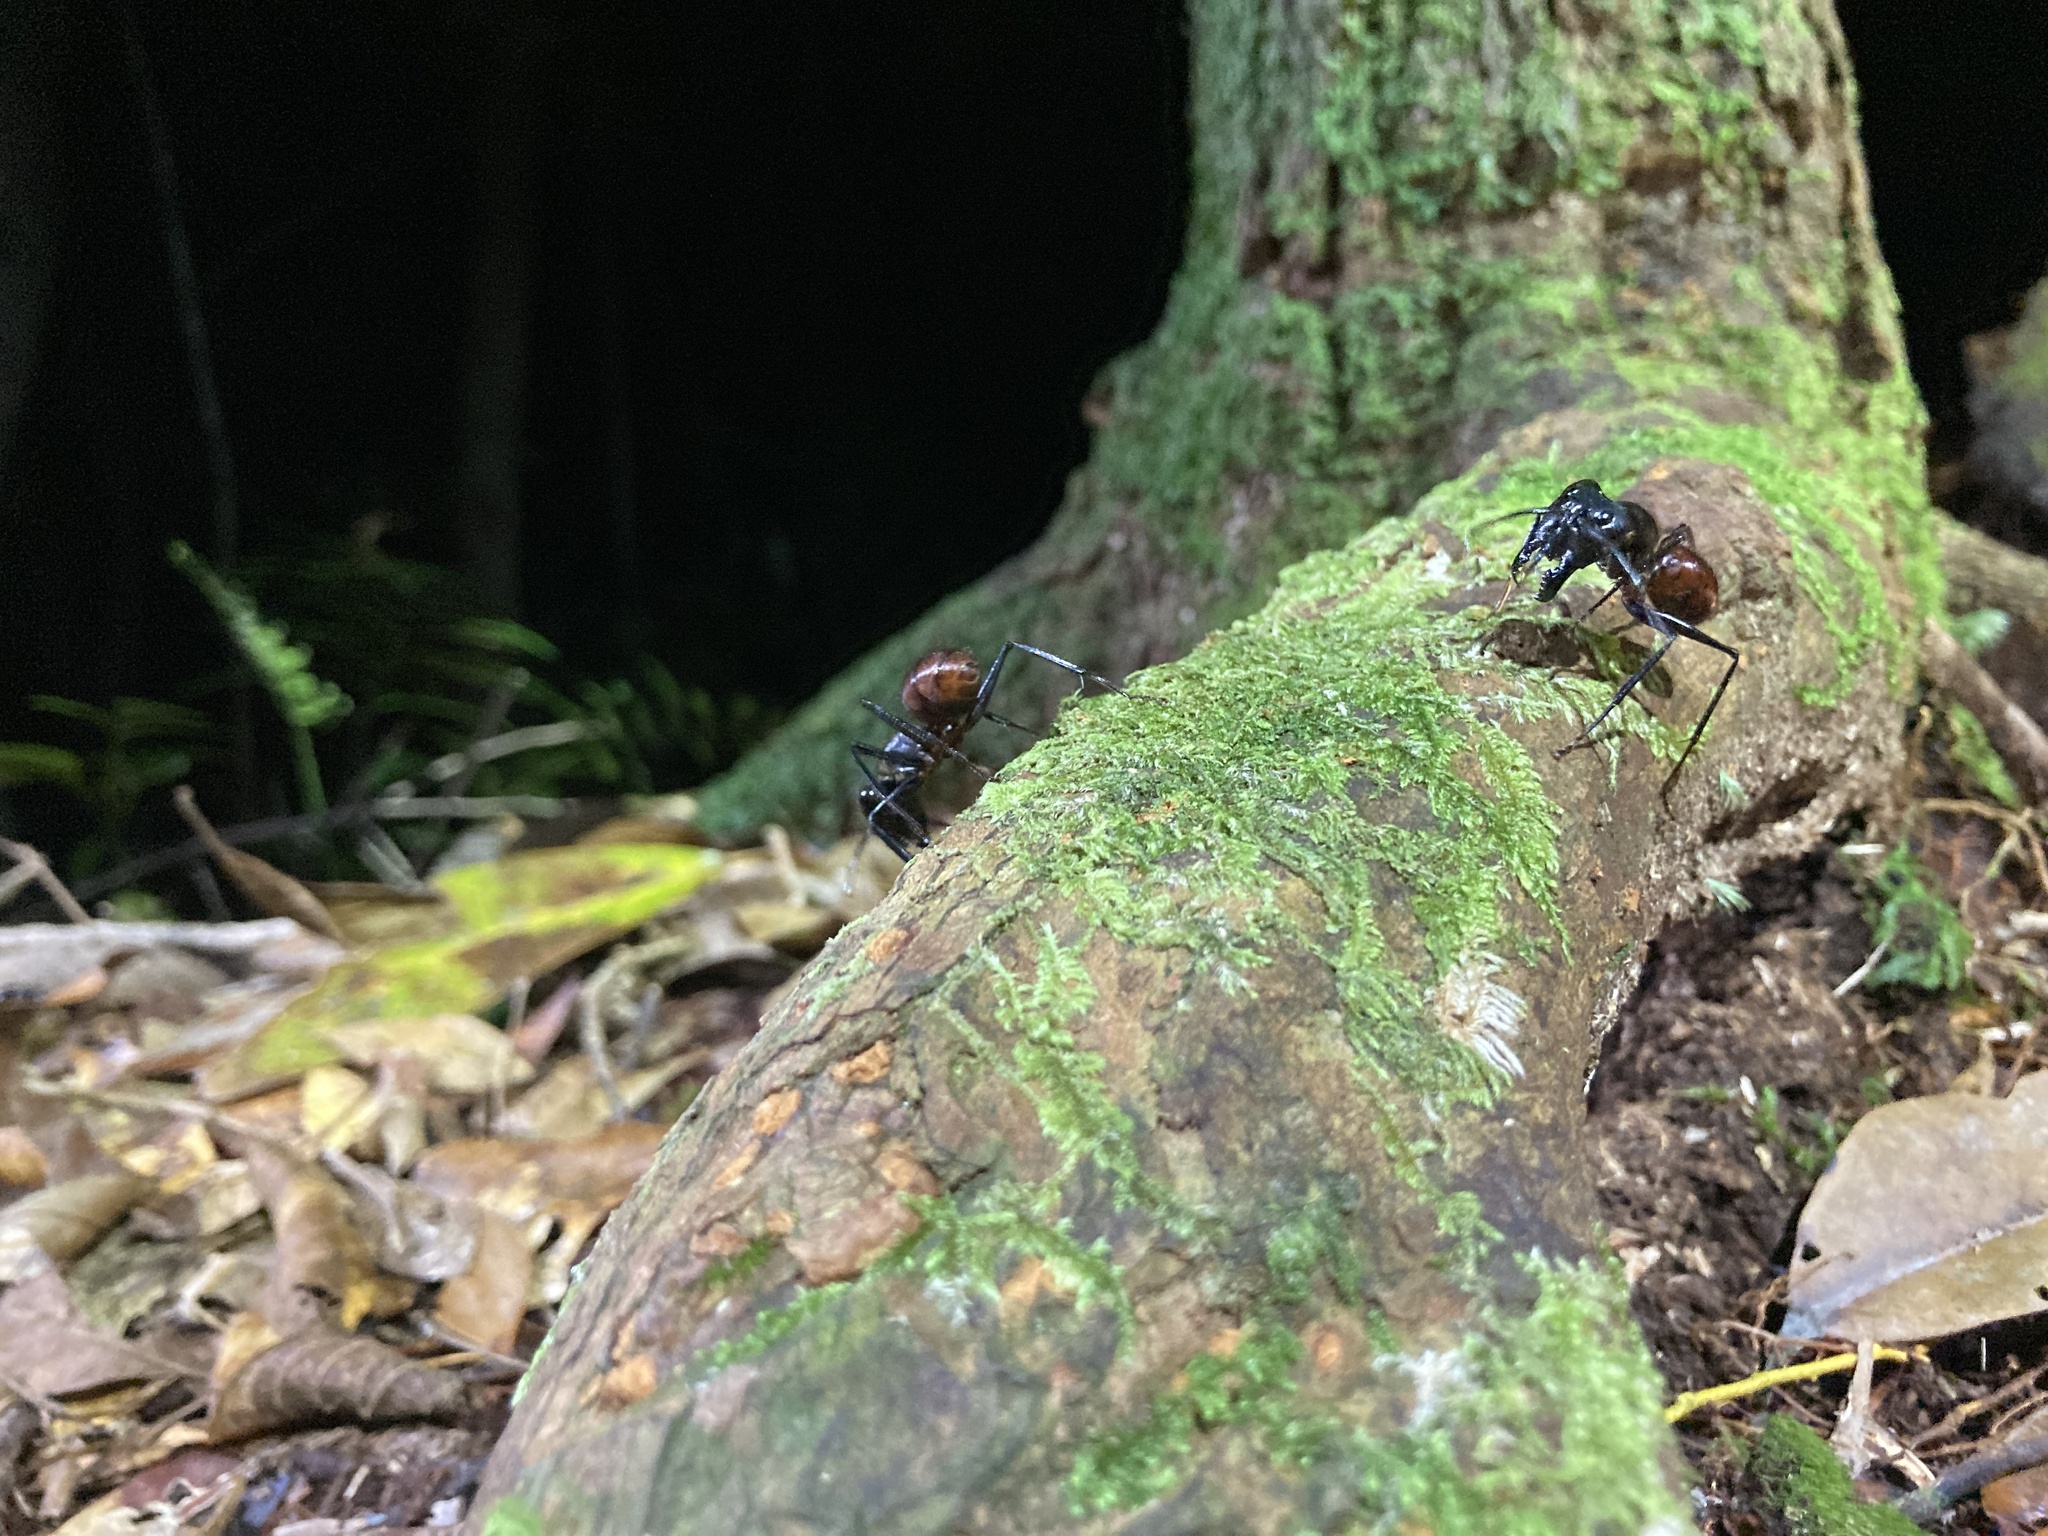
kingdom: Animalia
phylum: Arthropoda
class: Insecta
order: Hymenoptera
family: Formicidae
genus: Dinomyrmex
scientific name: Dinomyrmex
